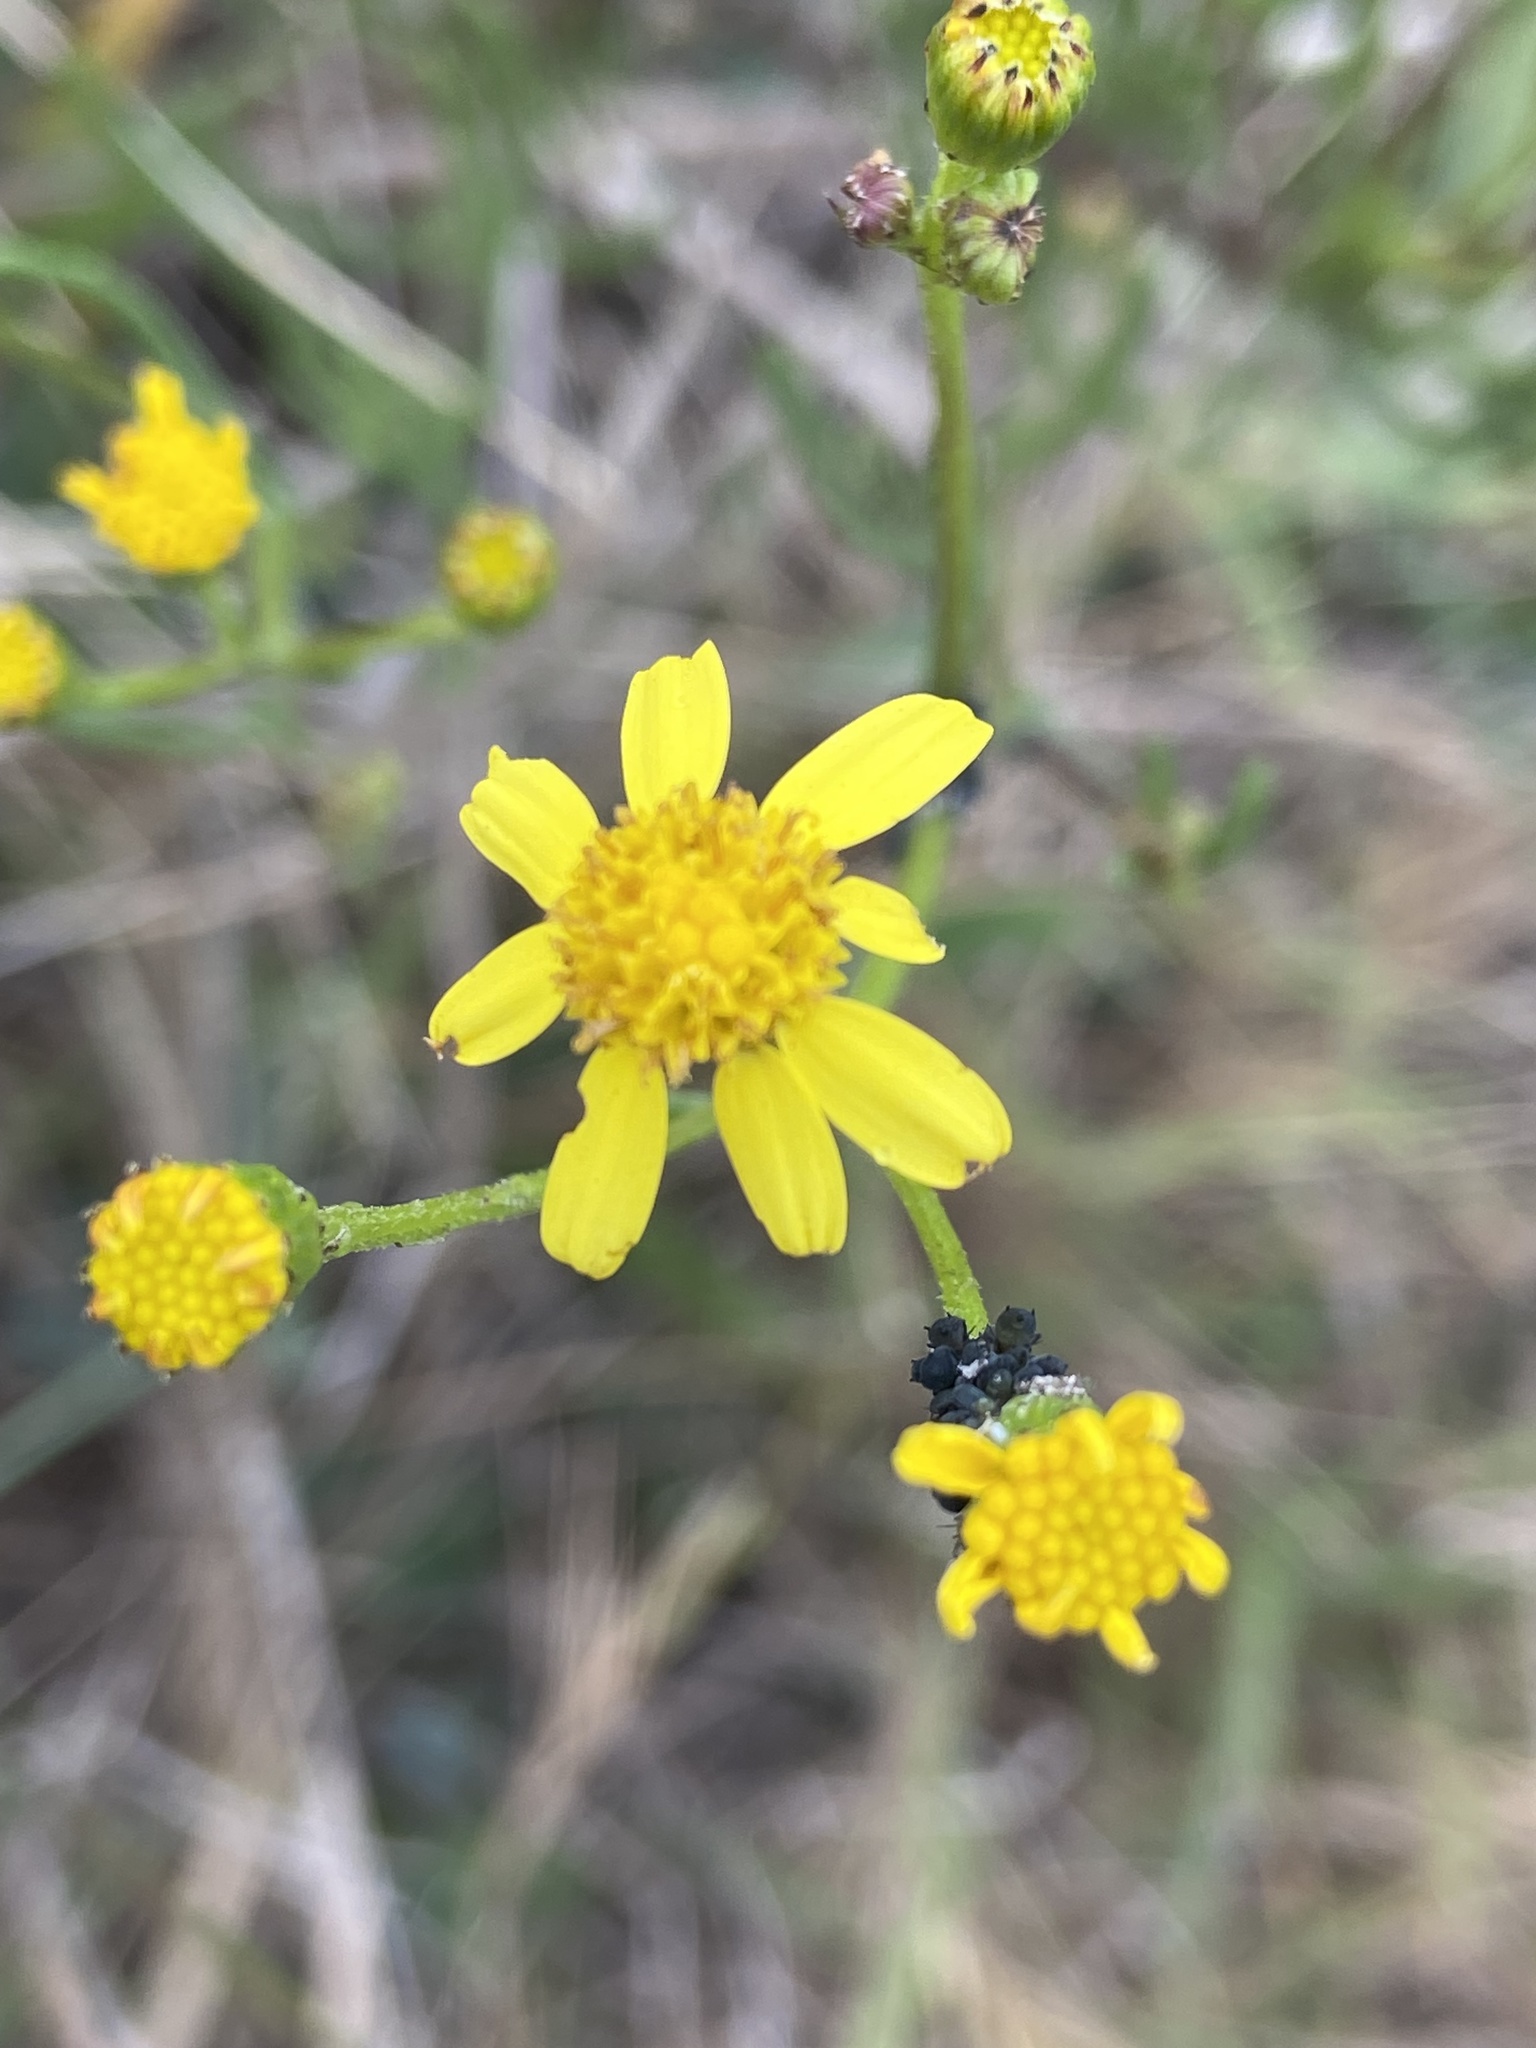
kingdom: Plantae
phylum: Tracheophyta
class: Magnoliopsida
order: Asterales
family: Asteraceae
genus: Senecio
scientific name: Senecio burchellii
